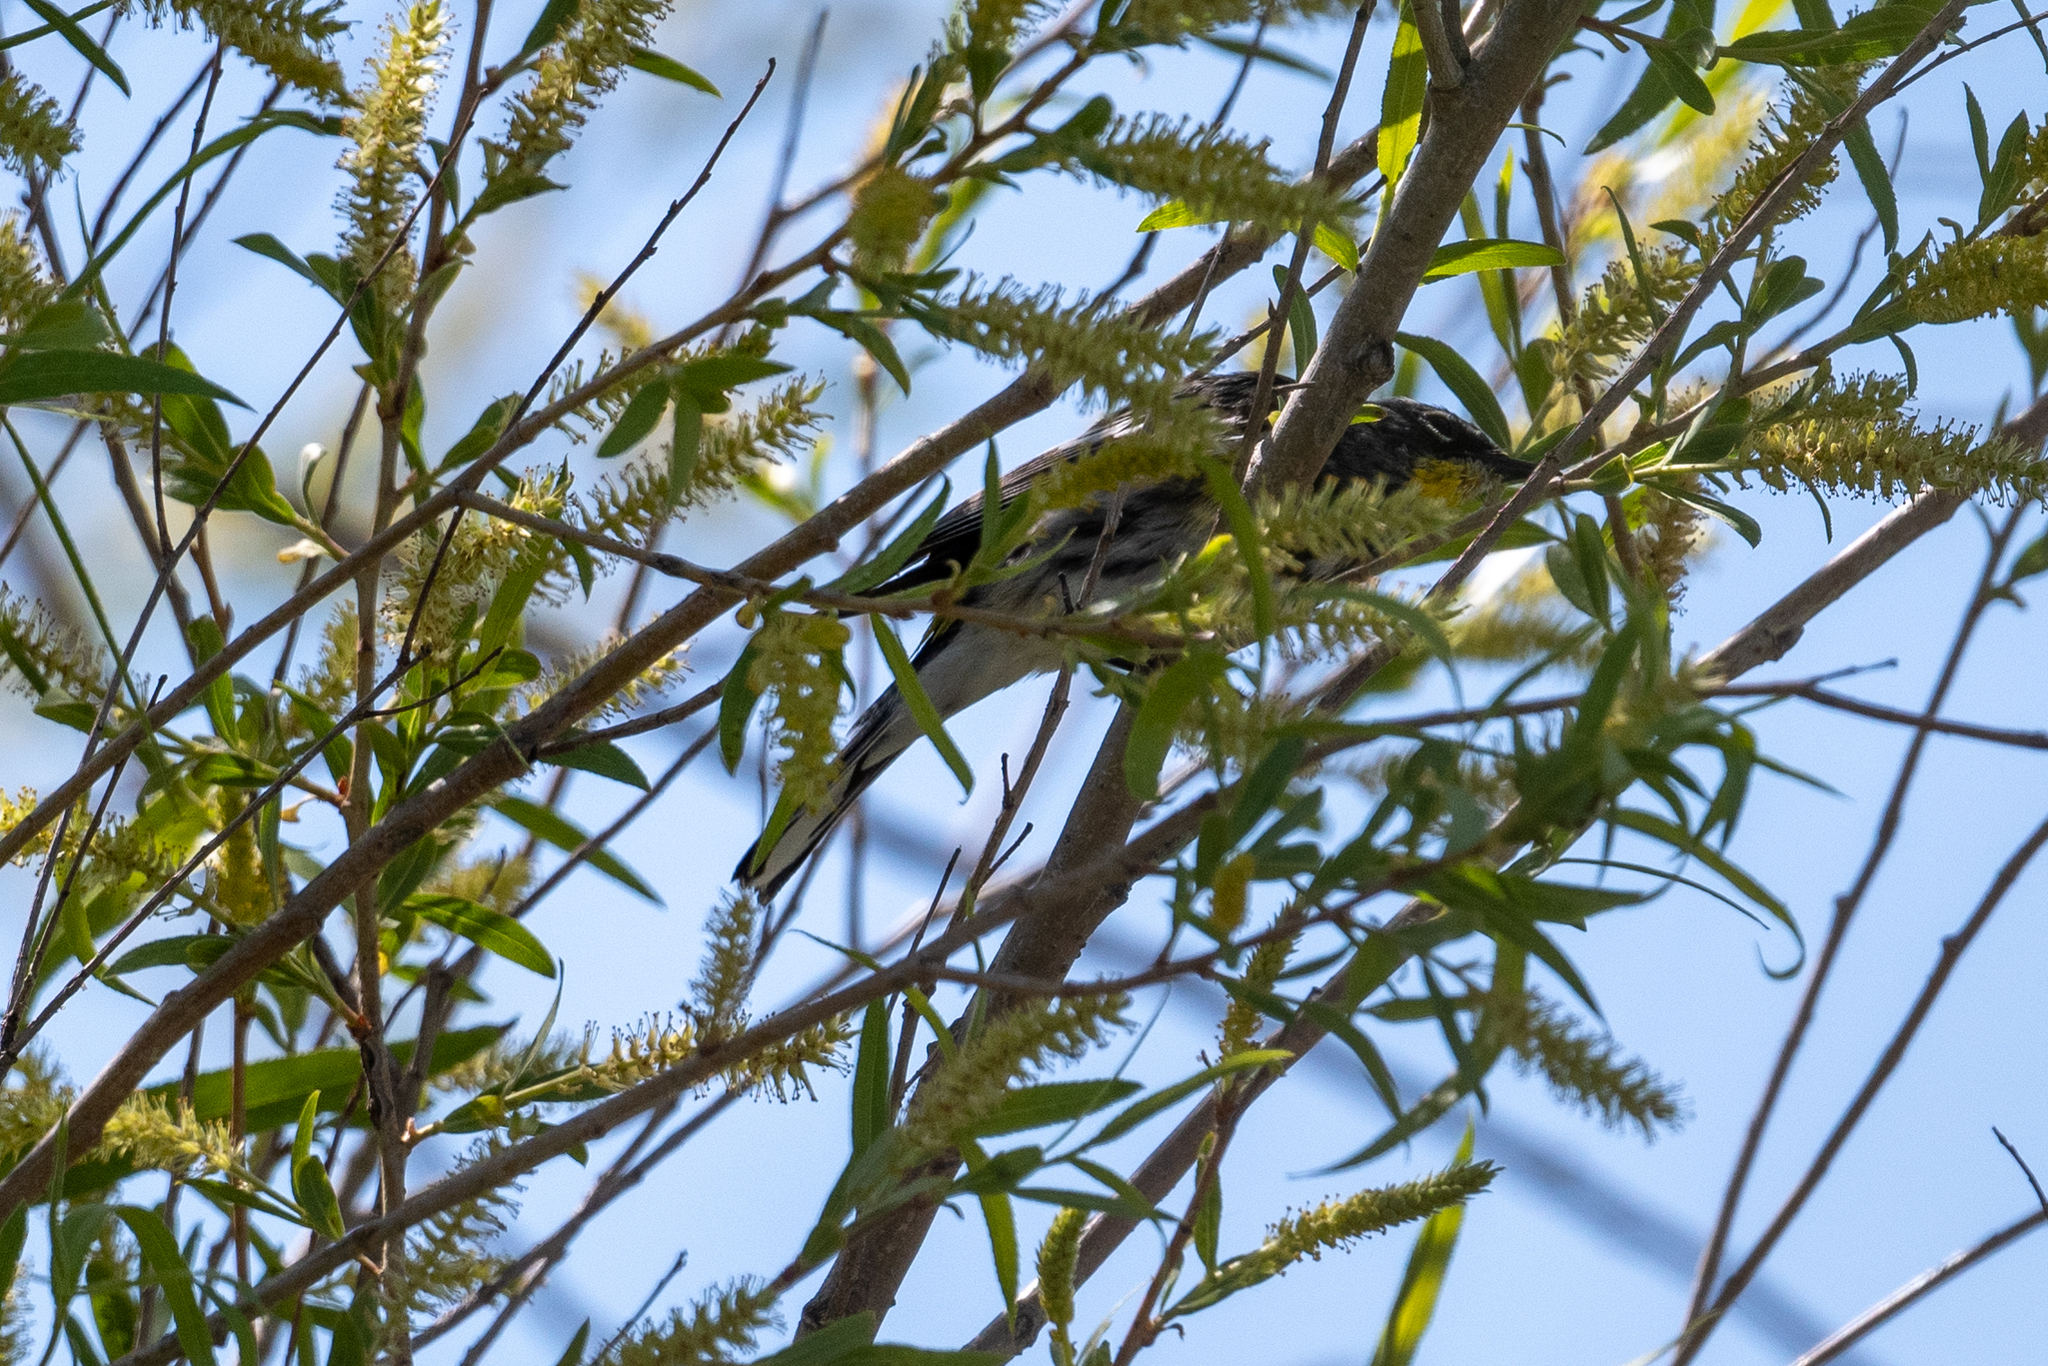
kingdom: Animalia
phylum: Chordata
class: Aves
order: Passeriformes
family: Parulidae
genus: Setophaga
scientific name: Setophaga coronata
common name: Myrtle warbler
